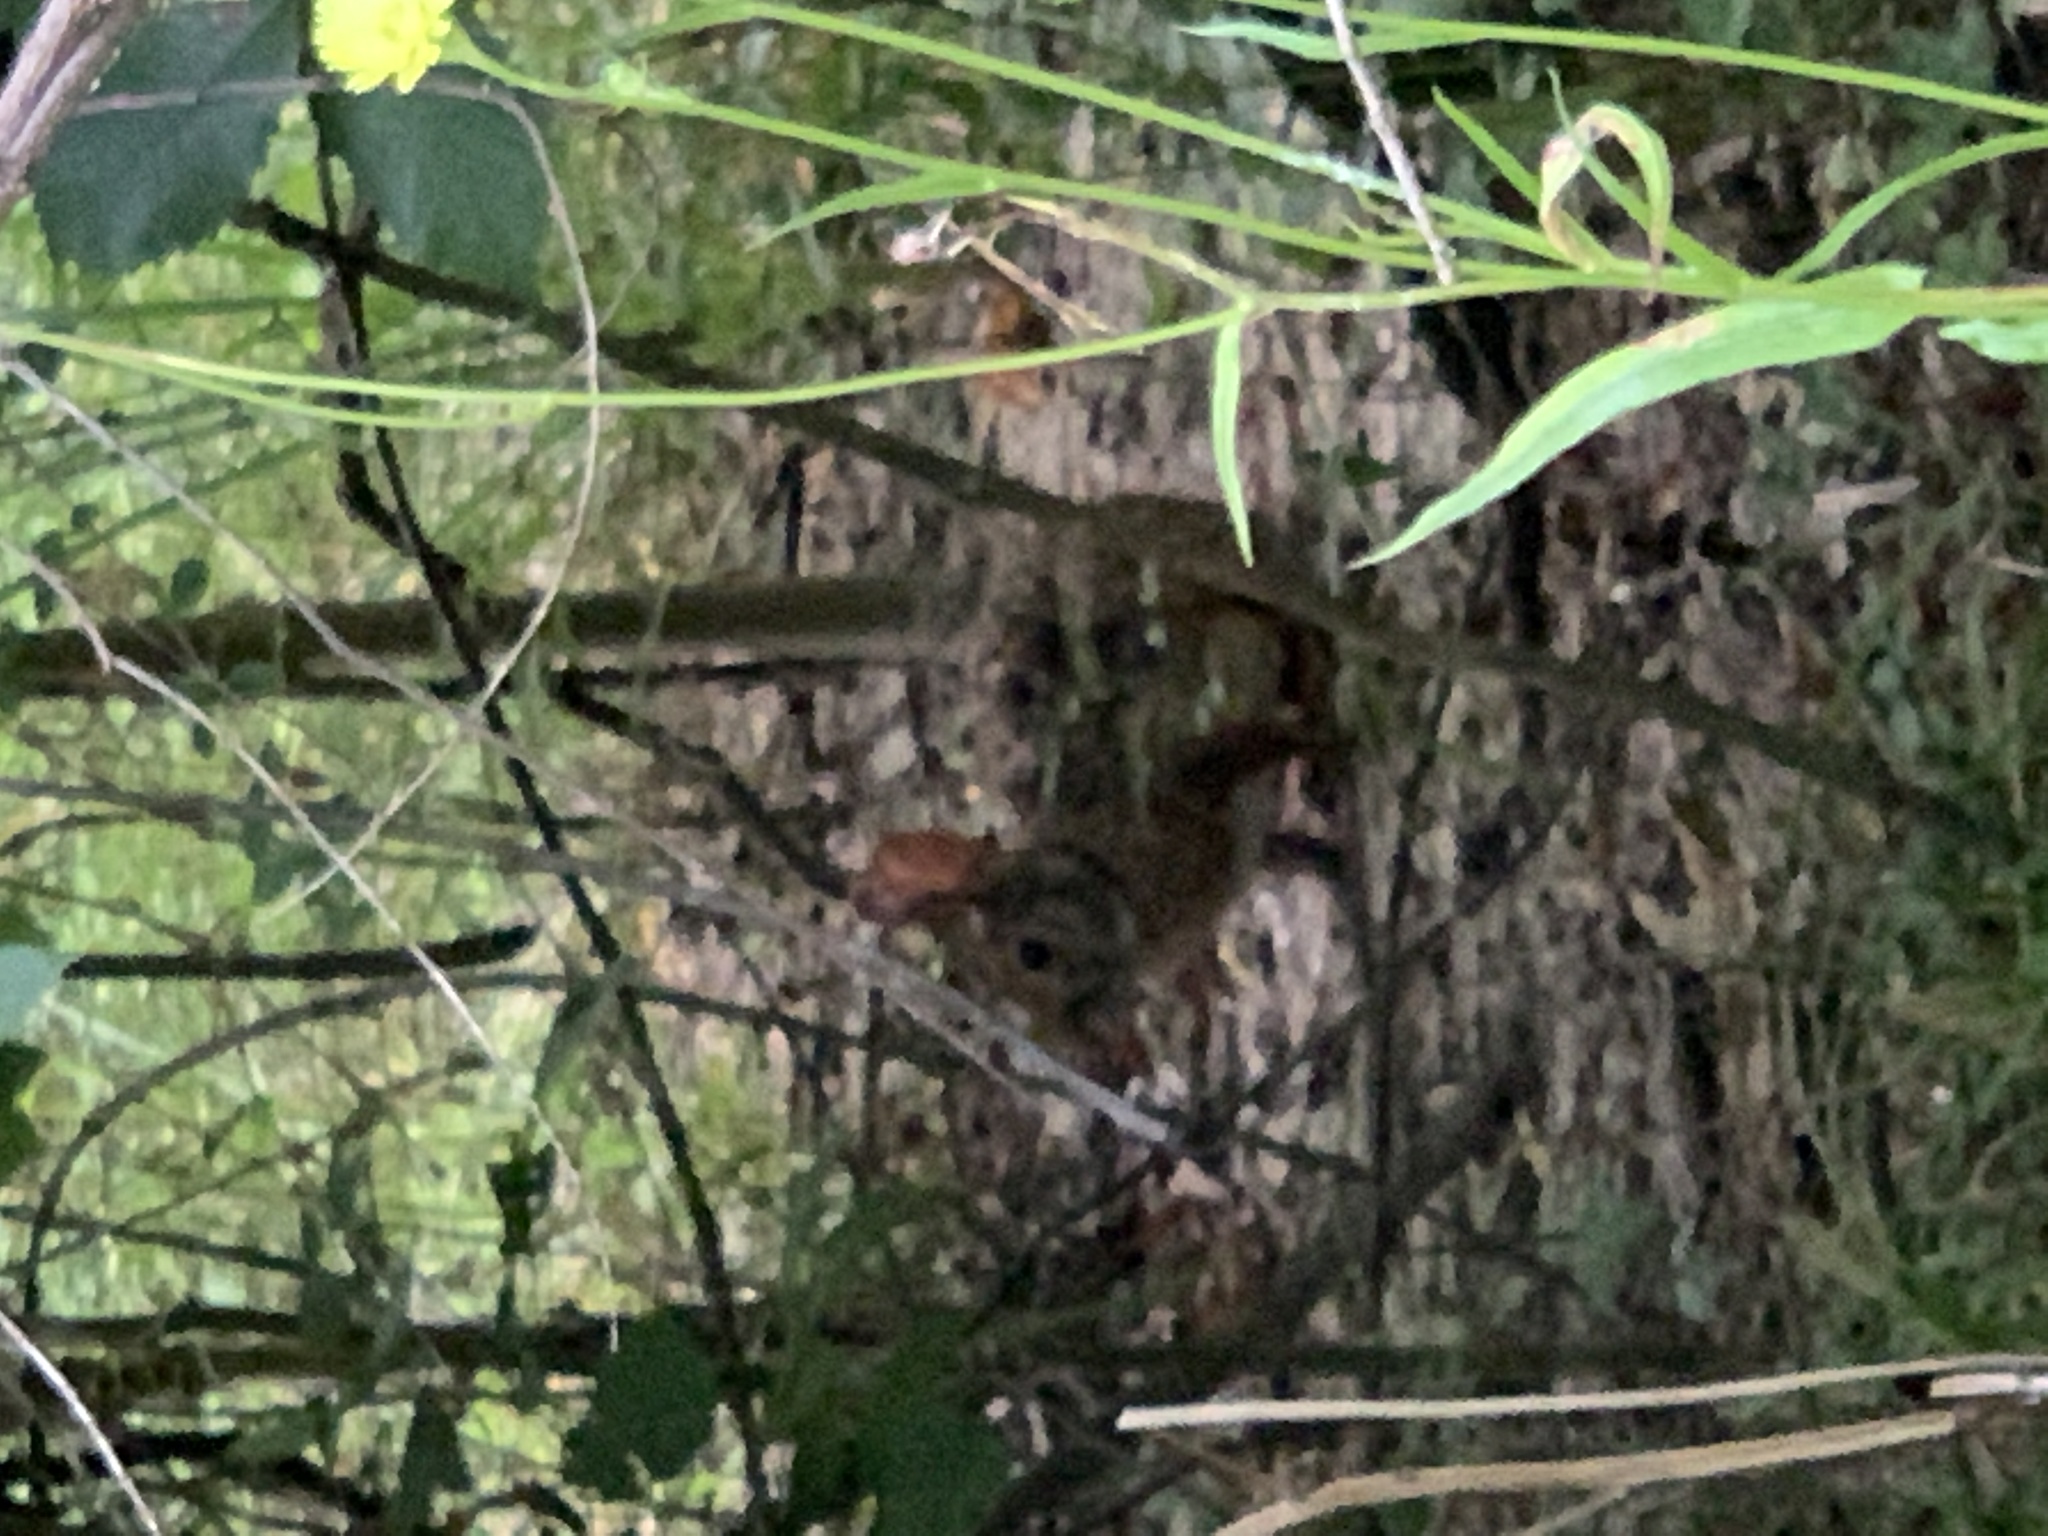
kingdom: Animalia
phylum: Chordata
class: Mammalia
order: Lagomorpha
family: Leporidae
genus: Sylvilagus
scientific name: Sylvilagus aquaticus
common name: Swamp rabbit
